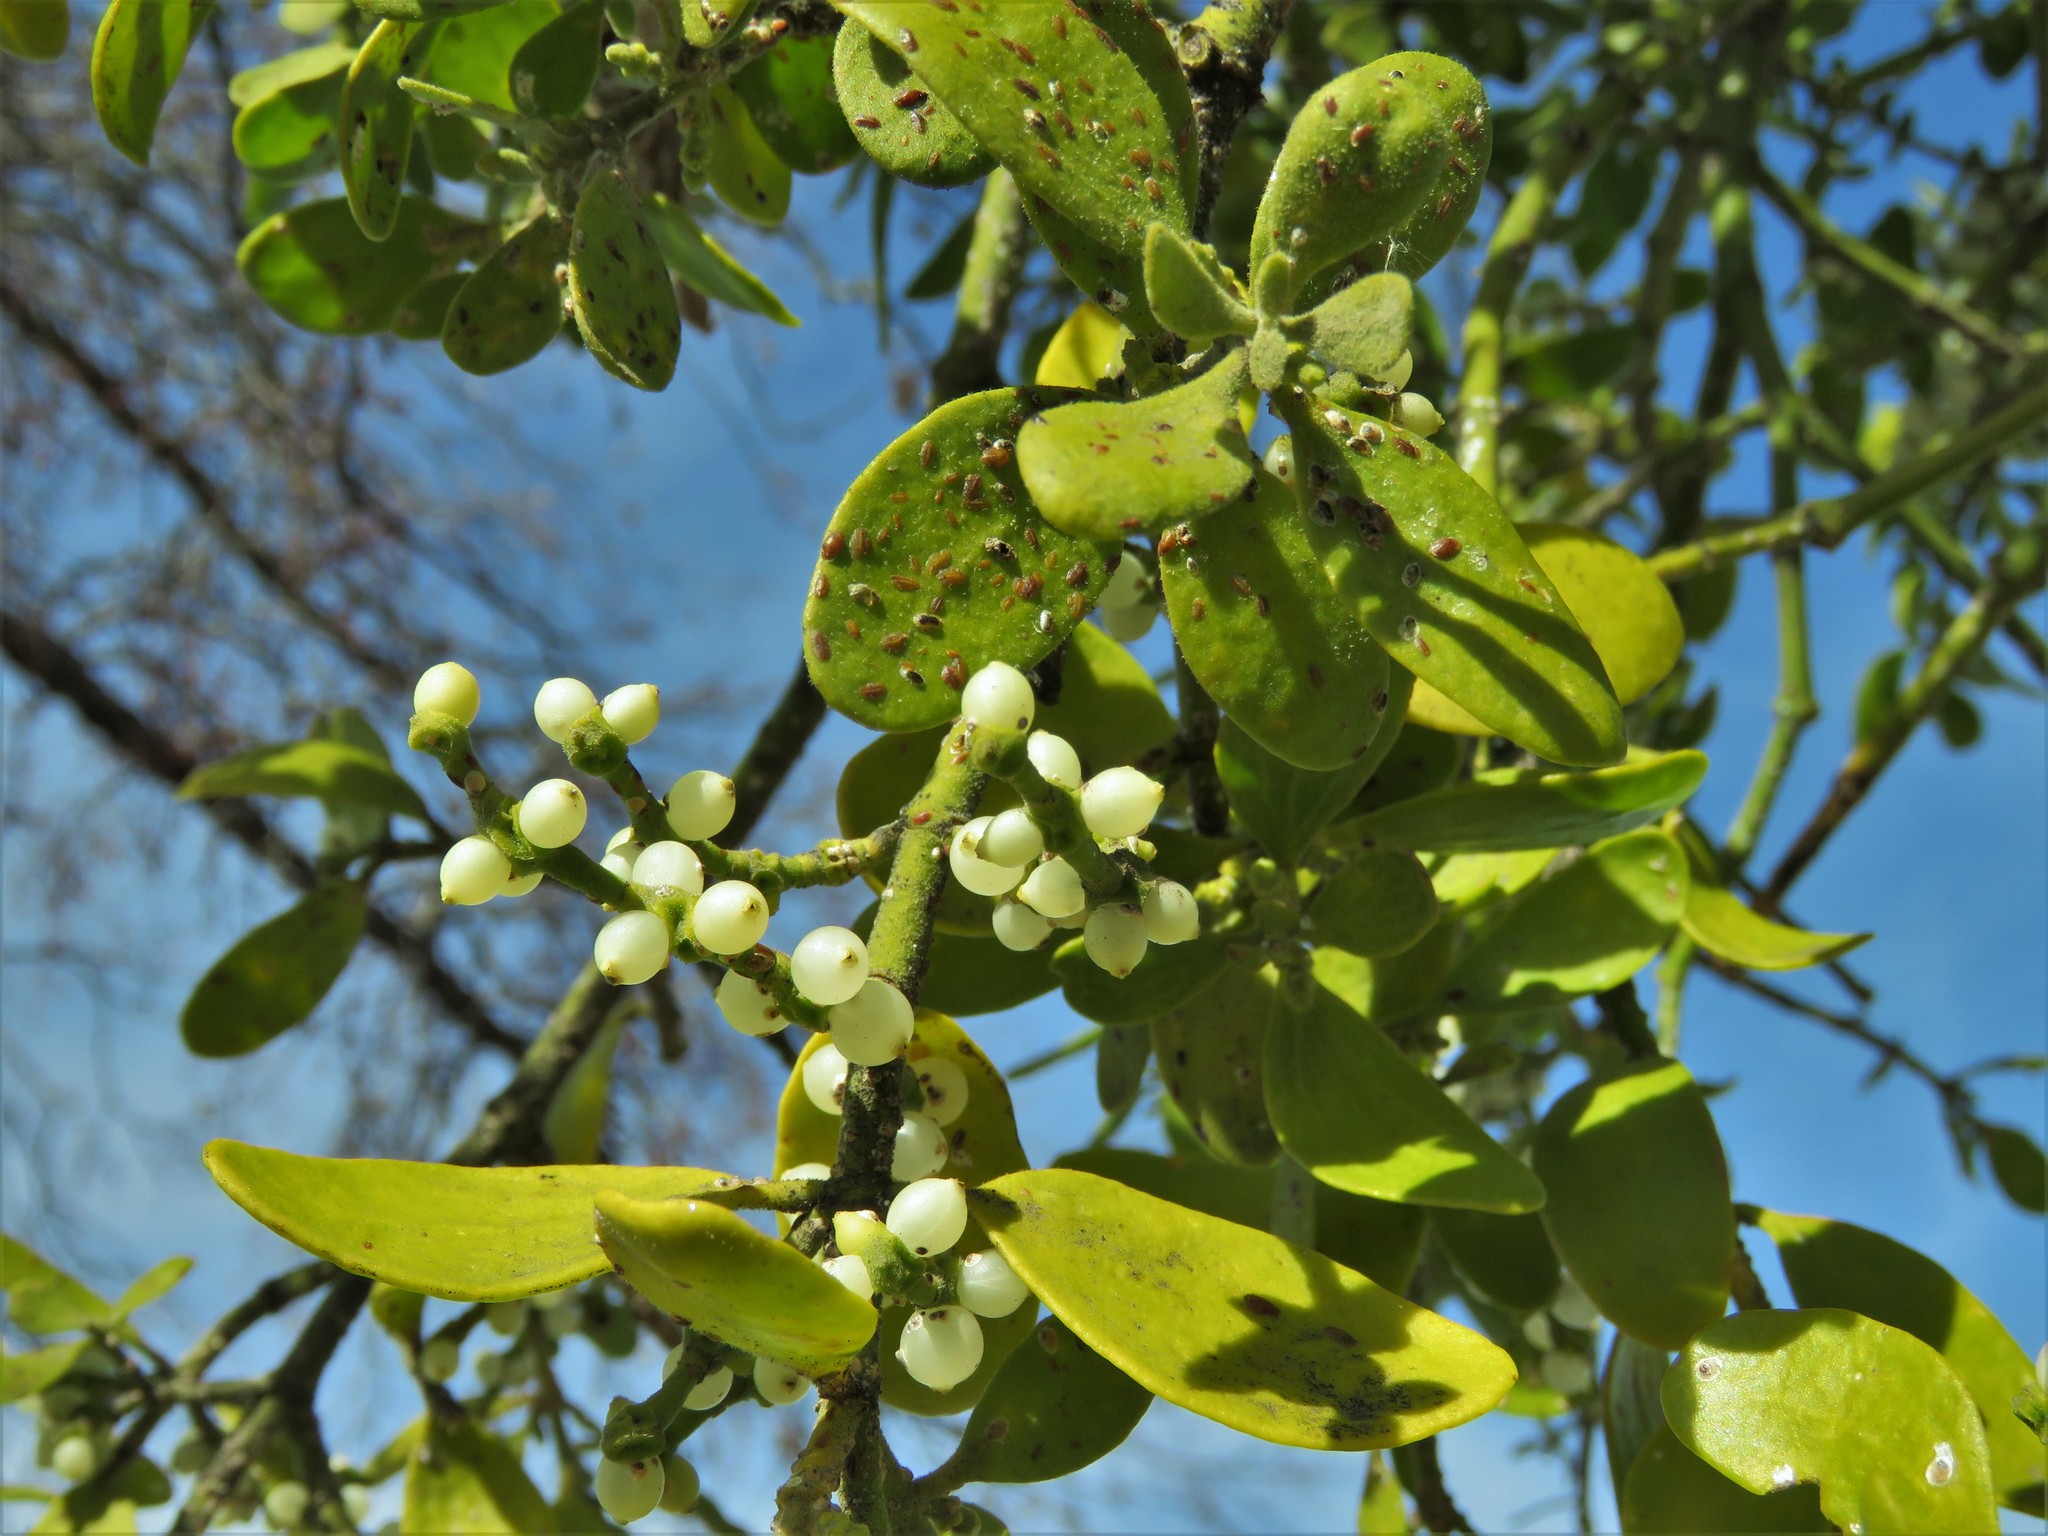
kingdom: Plantae
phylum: Tracheophyta
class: Magnoliopsida
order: Santalales
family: Viscaceae
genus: Phoradendron
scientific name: Phoradendron leucarpum
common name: Pacific mistletoe
